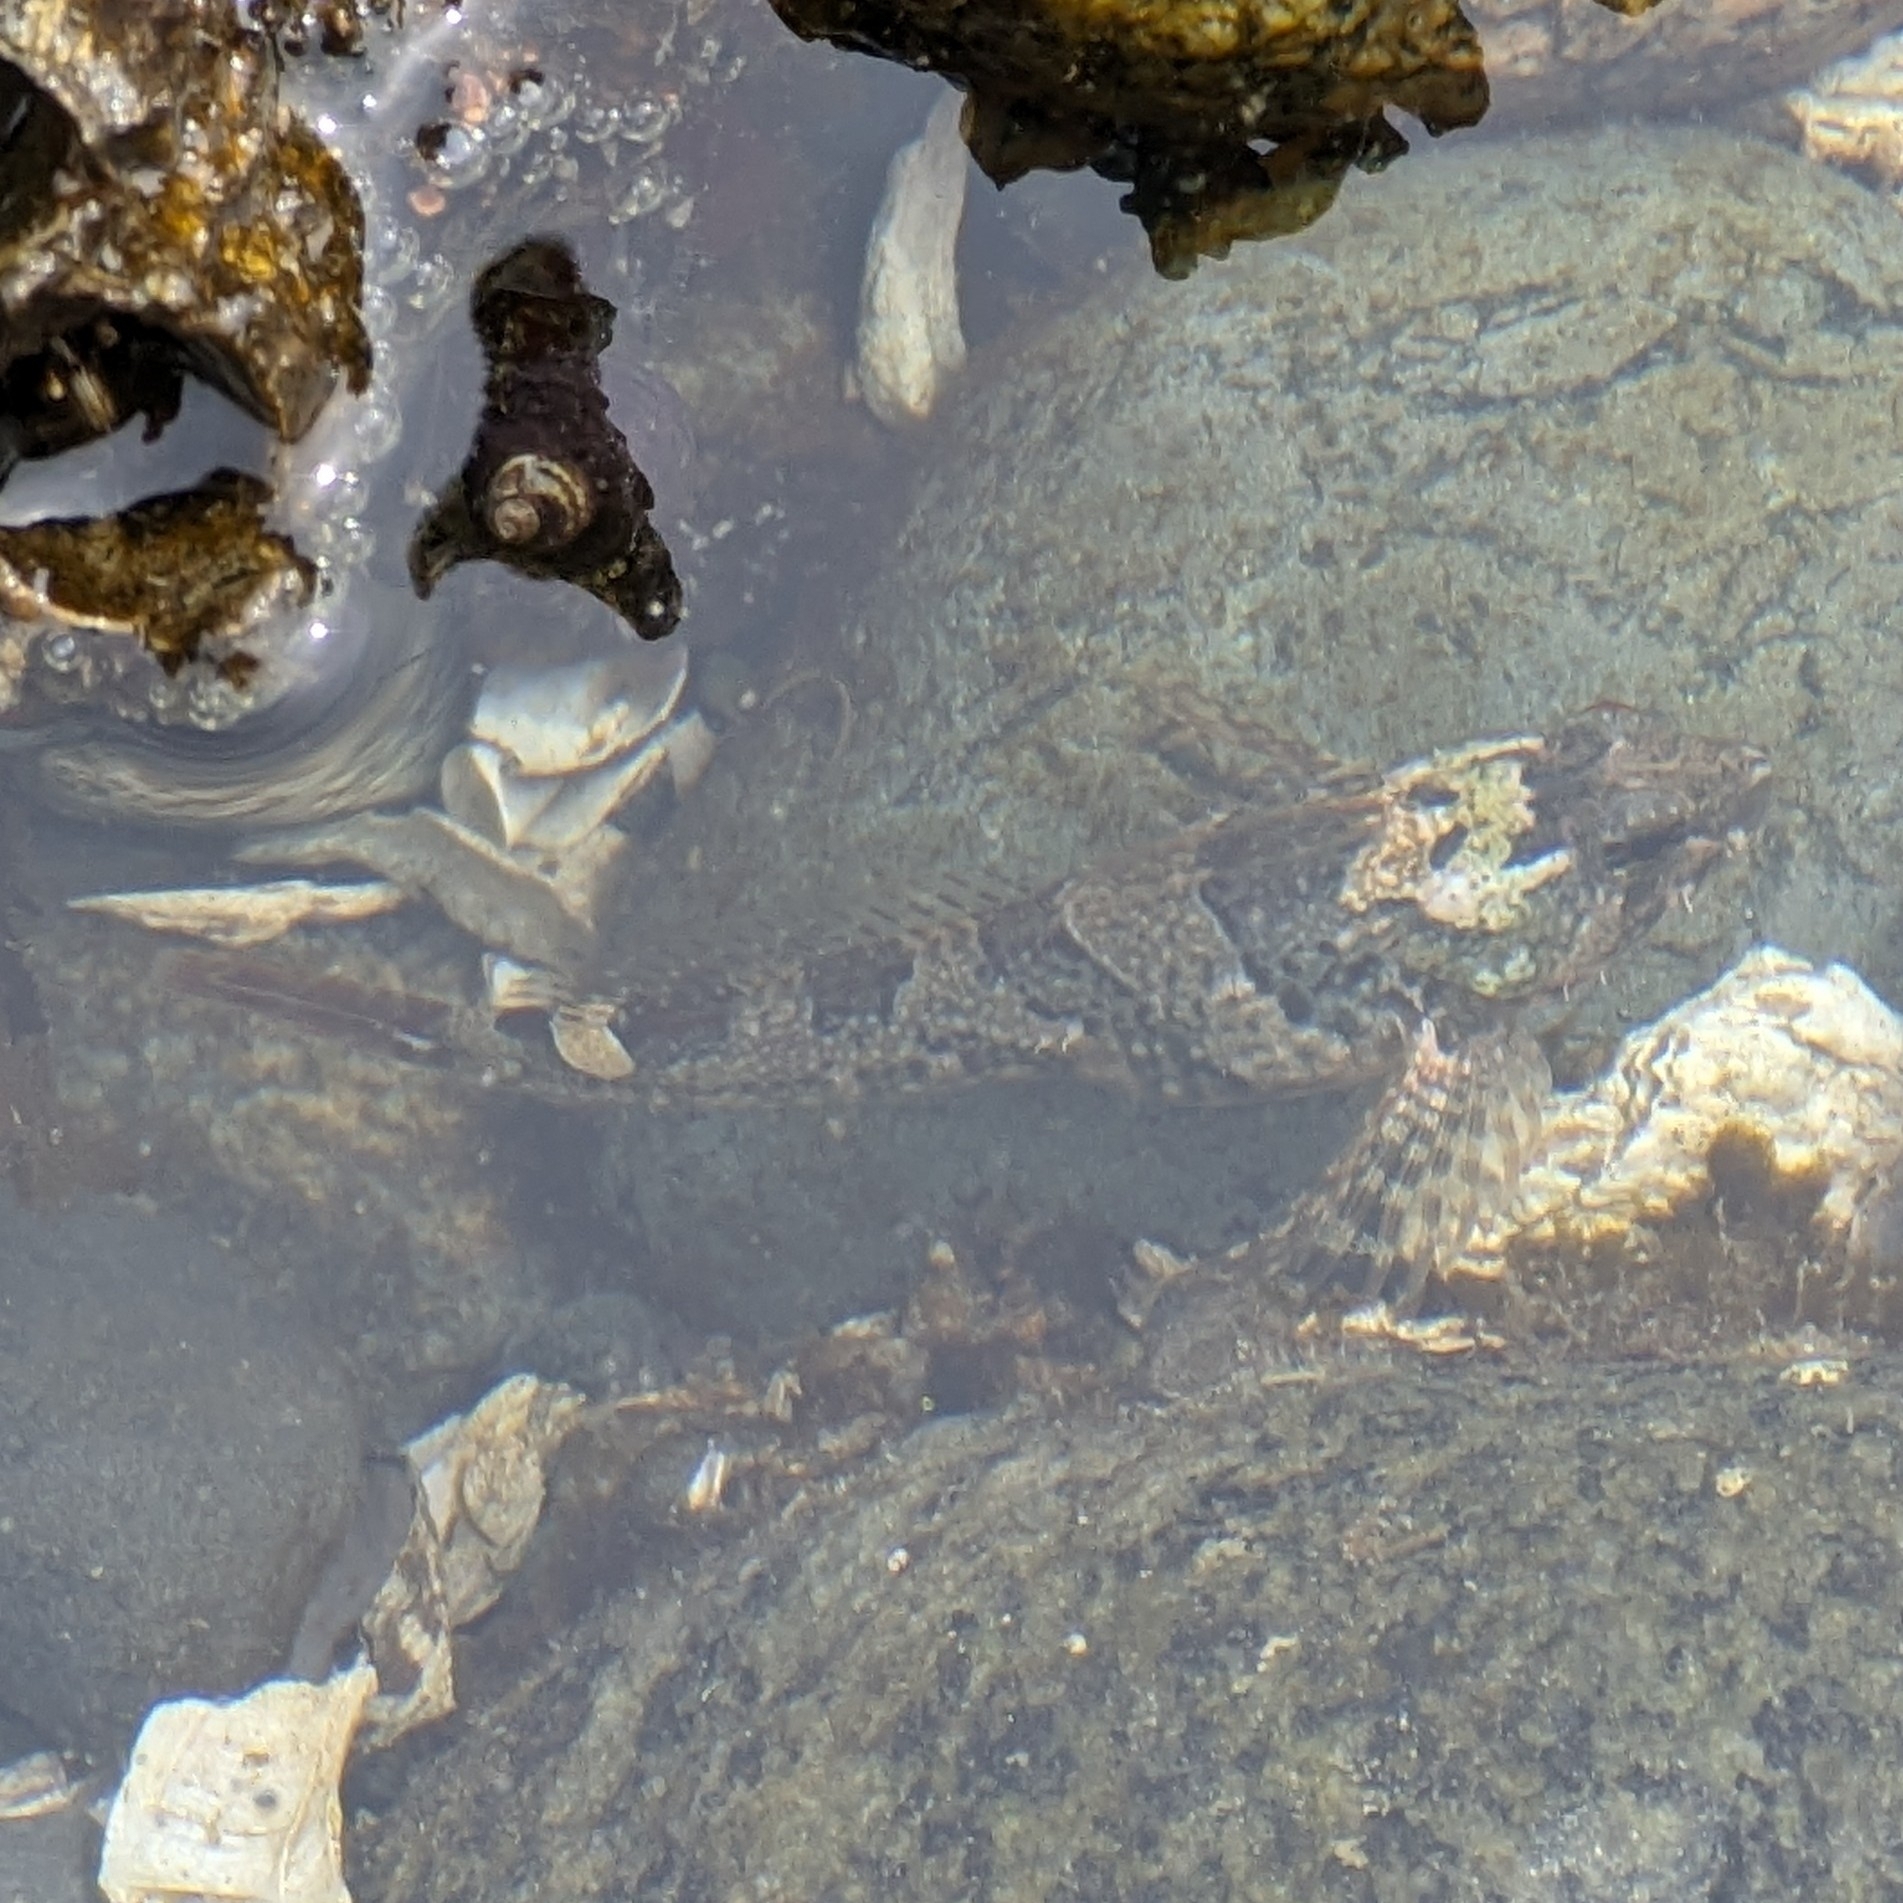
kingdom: Animalia
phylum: Chordata
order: Scorpaeniformes
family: Cottidae
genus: Oligocottus
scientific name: Oligocottus maculosus
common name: Tidepool sculpin
